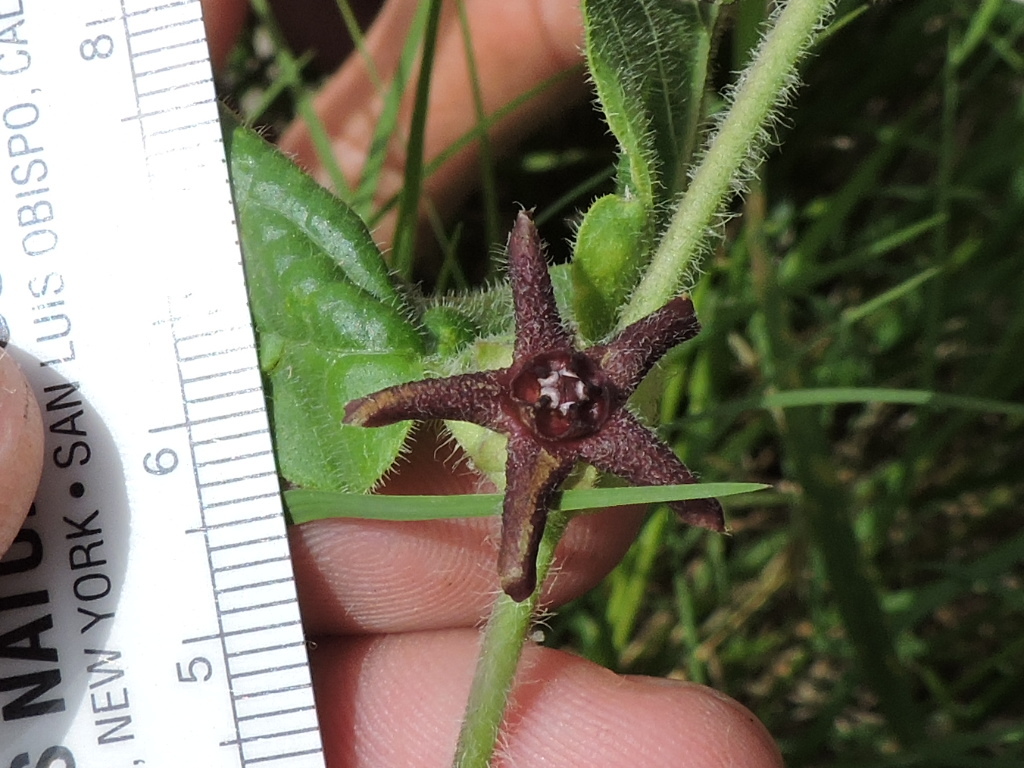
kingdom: Plantae
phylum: Tracheophyta
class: Magnoliopsida
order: Gentianales
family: Apocynaceae
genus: Chthamalia
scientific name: Chthamalia biflora
